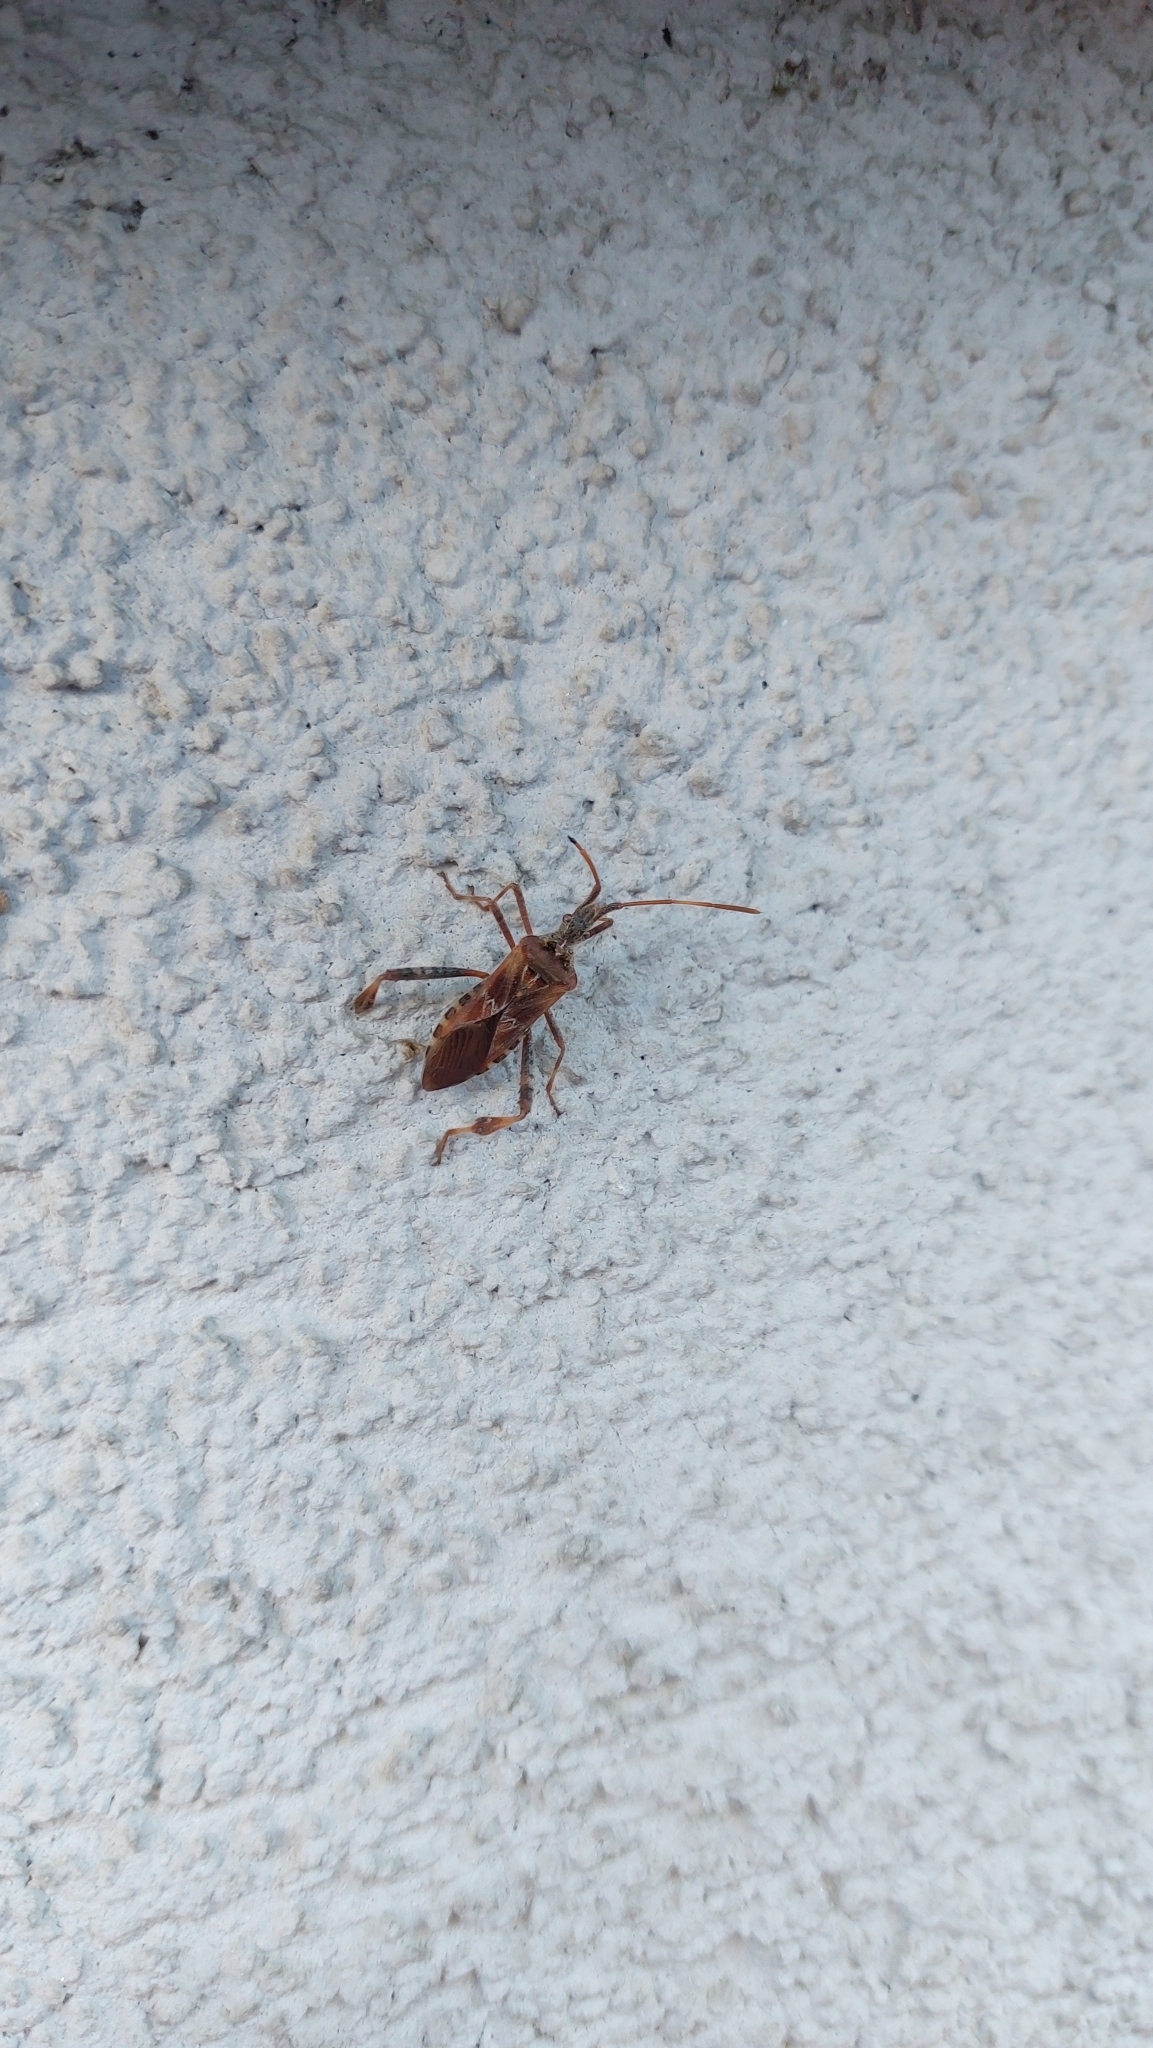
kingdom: Animalia
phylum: Arthropoda
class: Insecta
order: Hemiptera
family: Coreidae
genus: Leptoglossus
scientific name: Leptoglossus occidentalis
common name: Western conifer-seed bug
